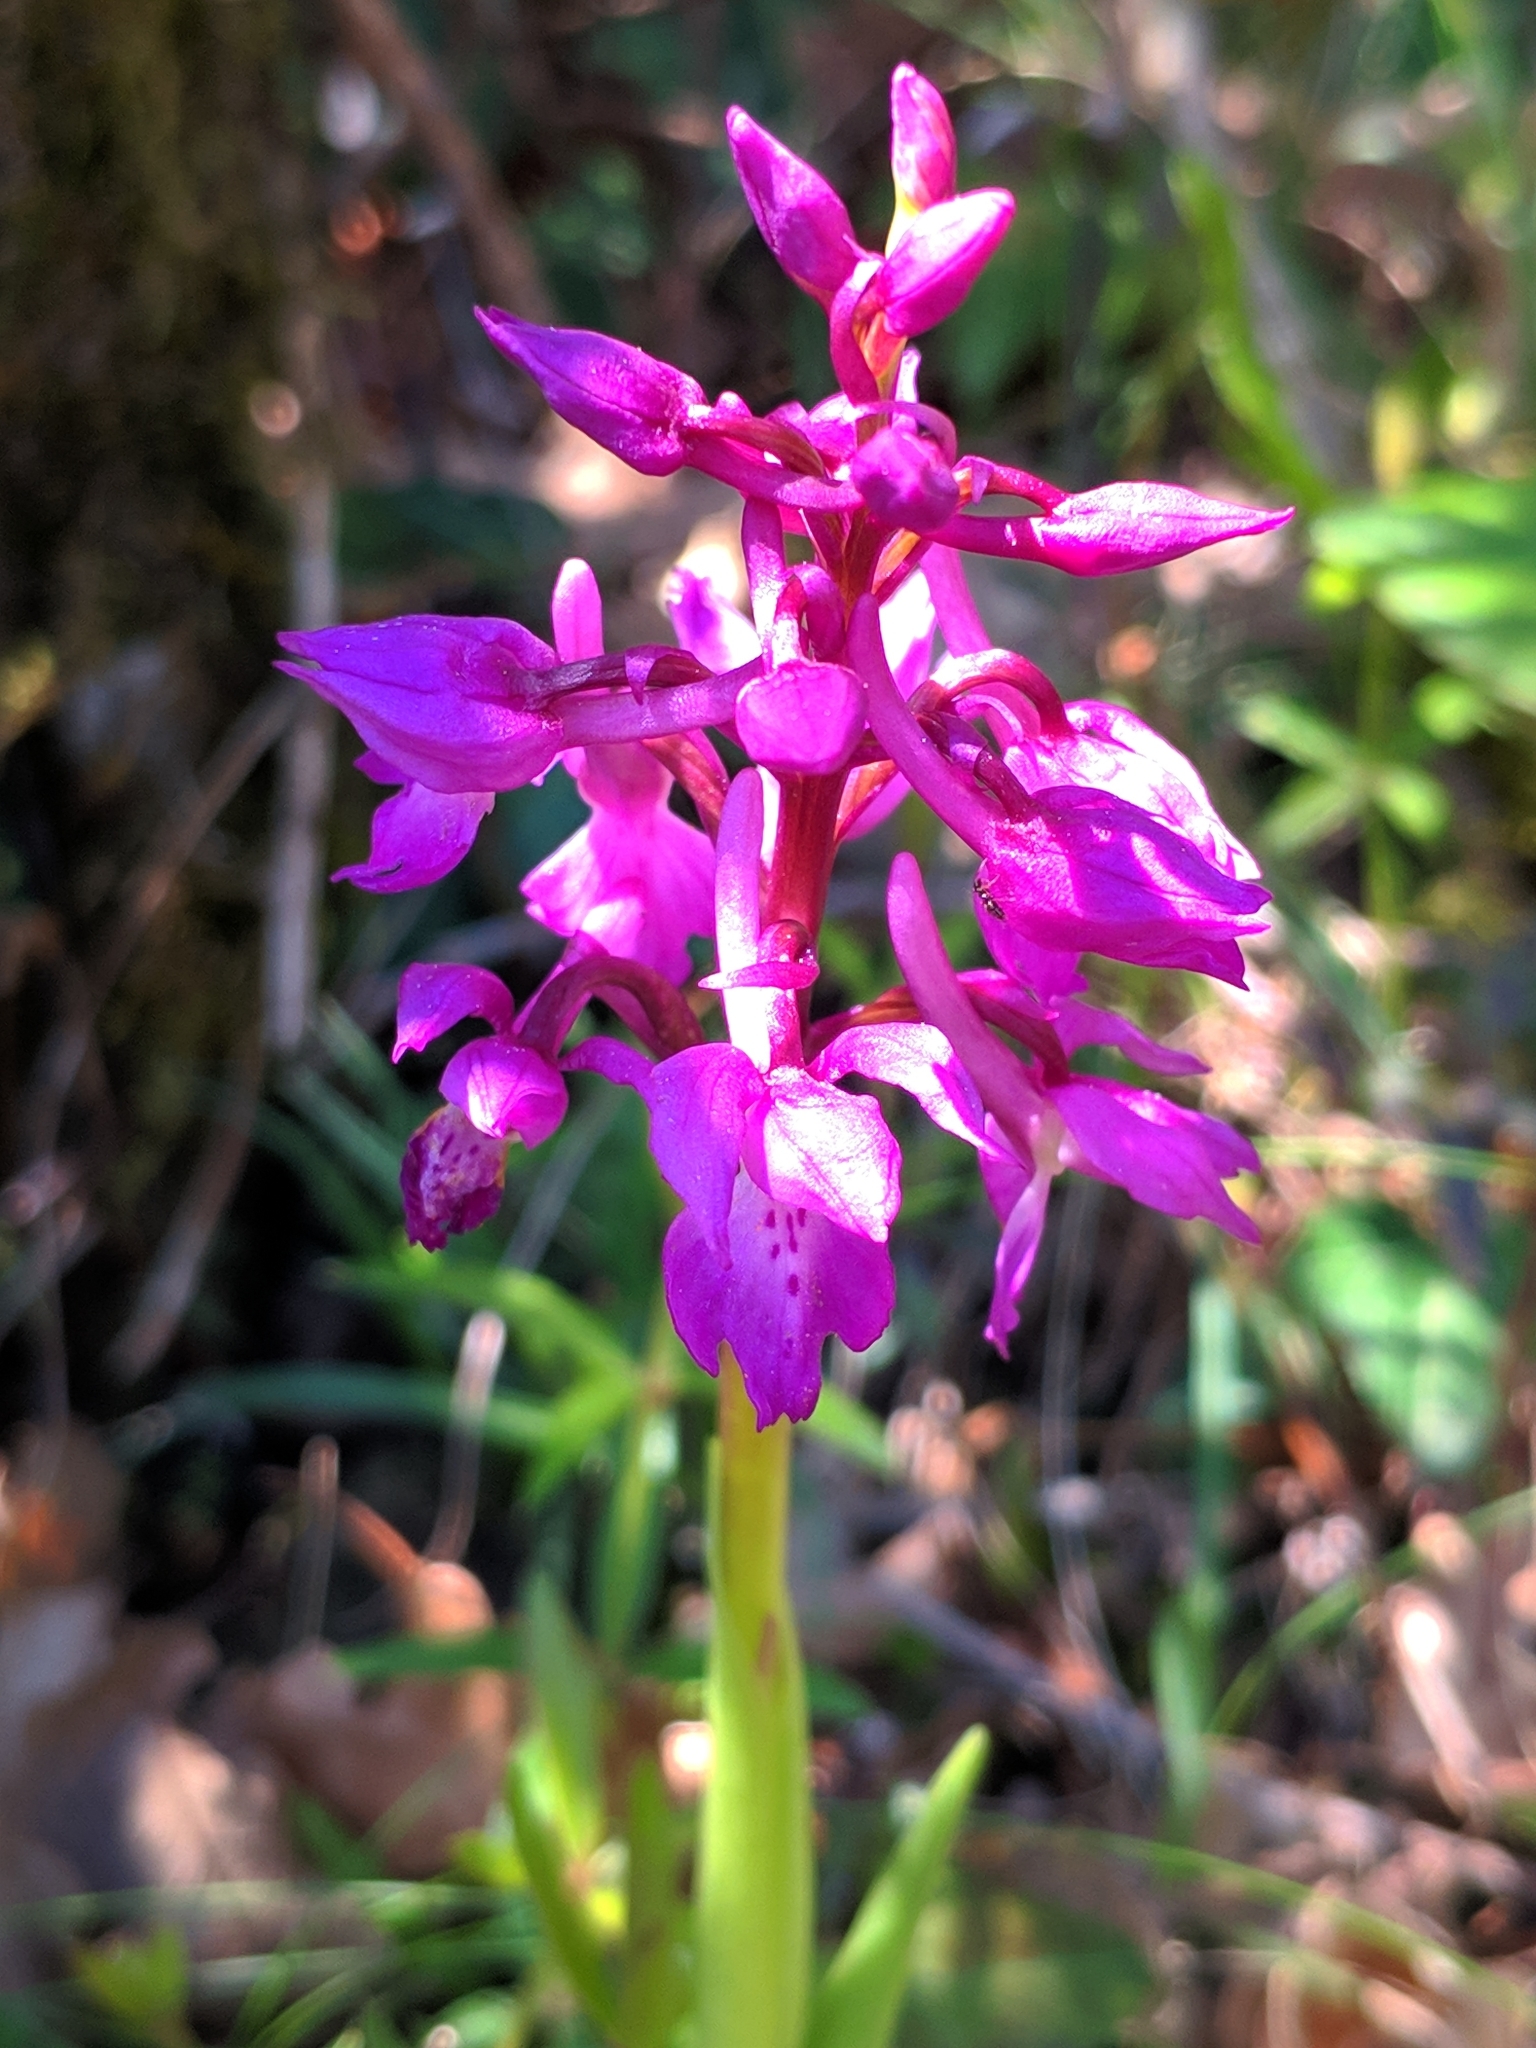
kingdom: Plantae
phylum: Tracheophyta
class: Liliopsida
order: Asparagales
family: Orchidaceae
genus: Orchis
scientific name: Orchis mascula
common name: Early-purple orchid
